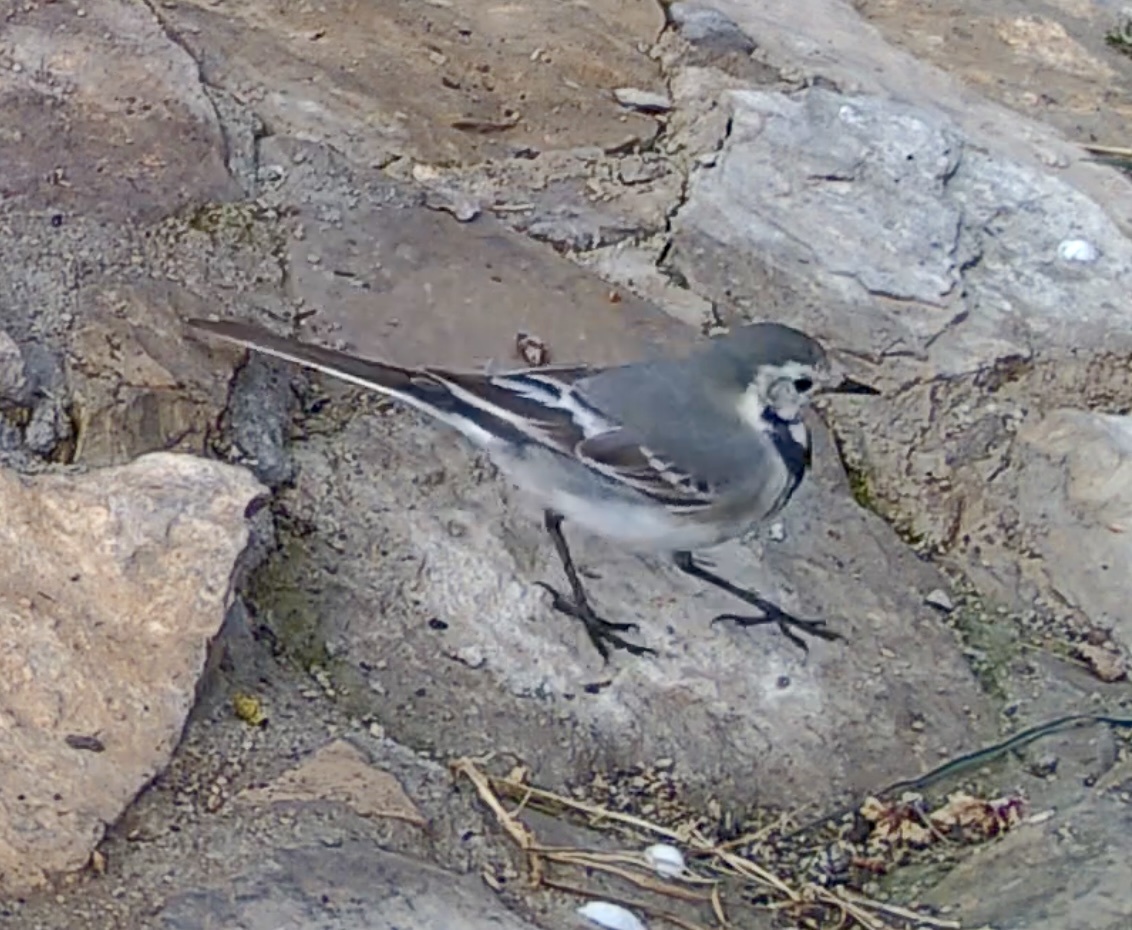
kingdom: Animalia
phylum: Chordata
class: Aves
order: Passeriformes
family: Motacillidae
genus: Motacilla
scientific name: Motacilla alba
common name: White wagtail
